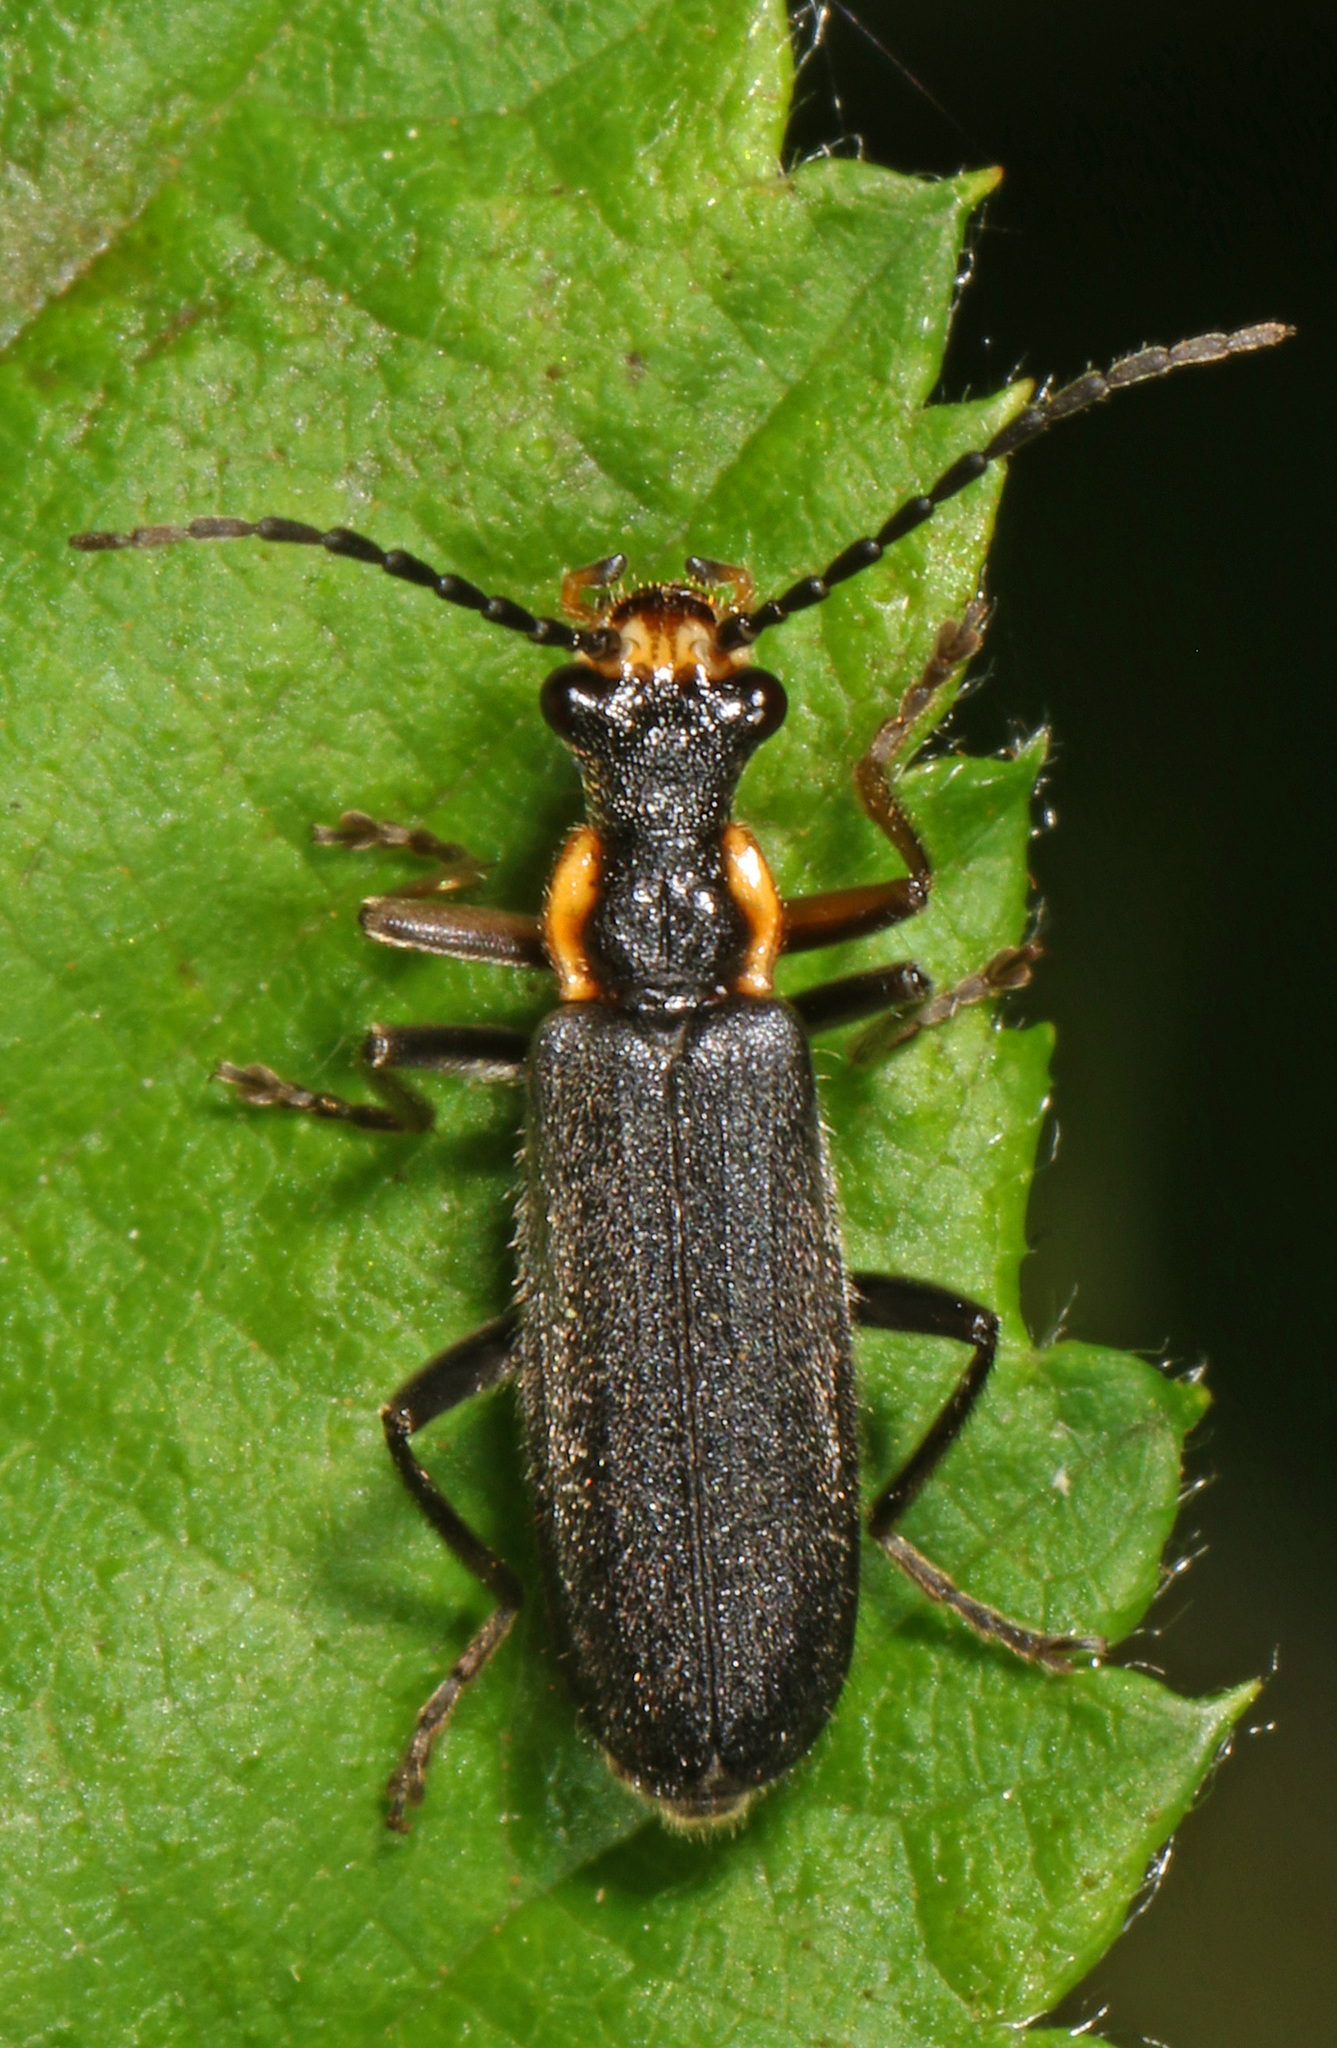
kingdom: Animalia
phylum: Arthropoda
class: Insecta
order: Coleoptera
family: Cantharidae
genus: Podabrus
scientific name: Podabrus rugosulus
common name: Wrinkled soldier beetle
